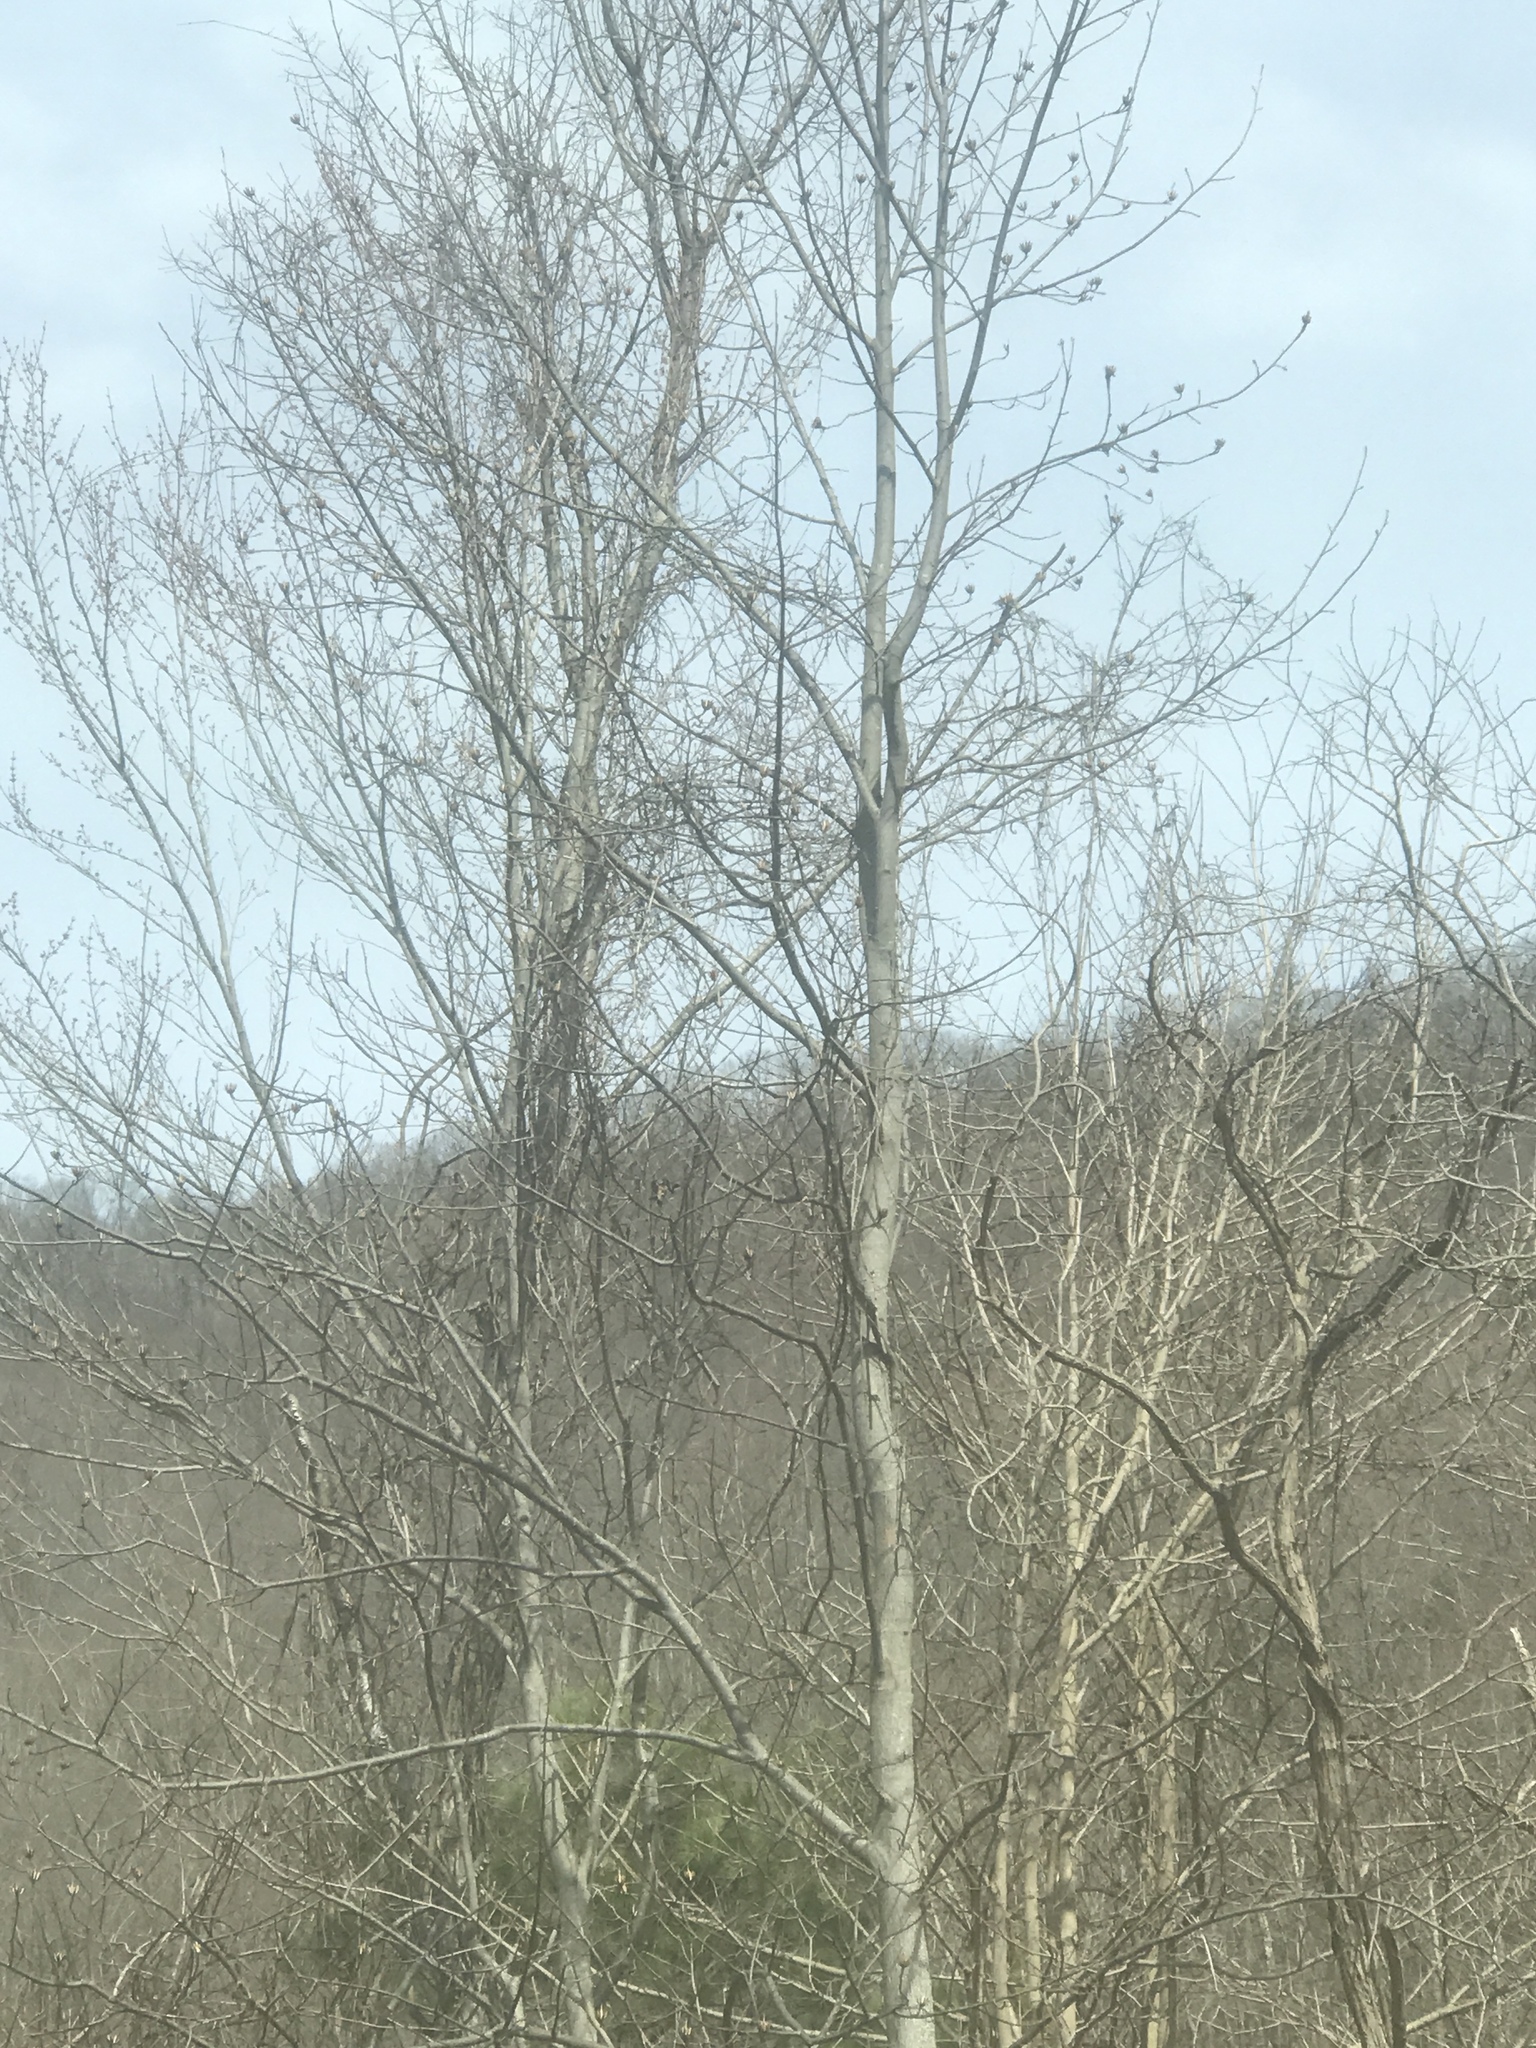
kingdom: Plantae
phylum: Tracheophyta
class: Magnoliopsida
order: Magnoliales
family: Magnoliaceae
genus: Liriodendron
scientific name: Liriodendron tulipifera
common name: Tulip tree
